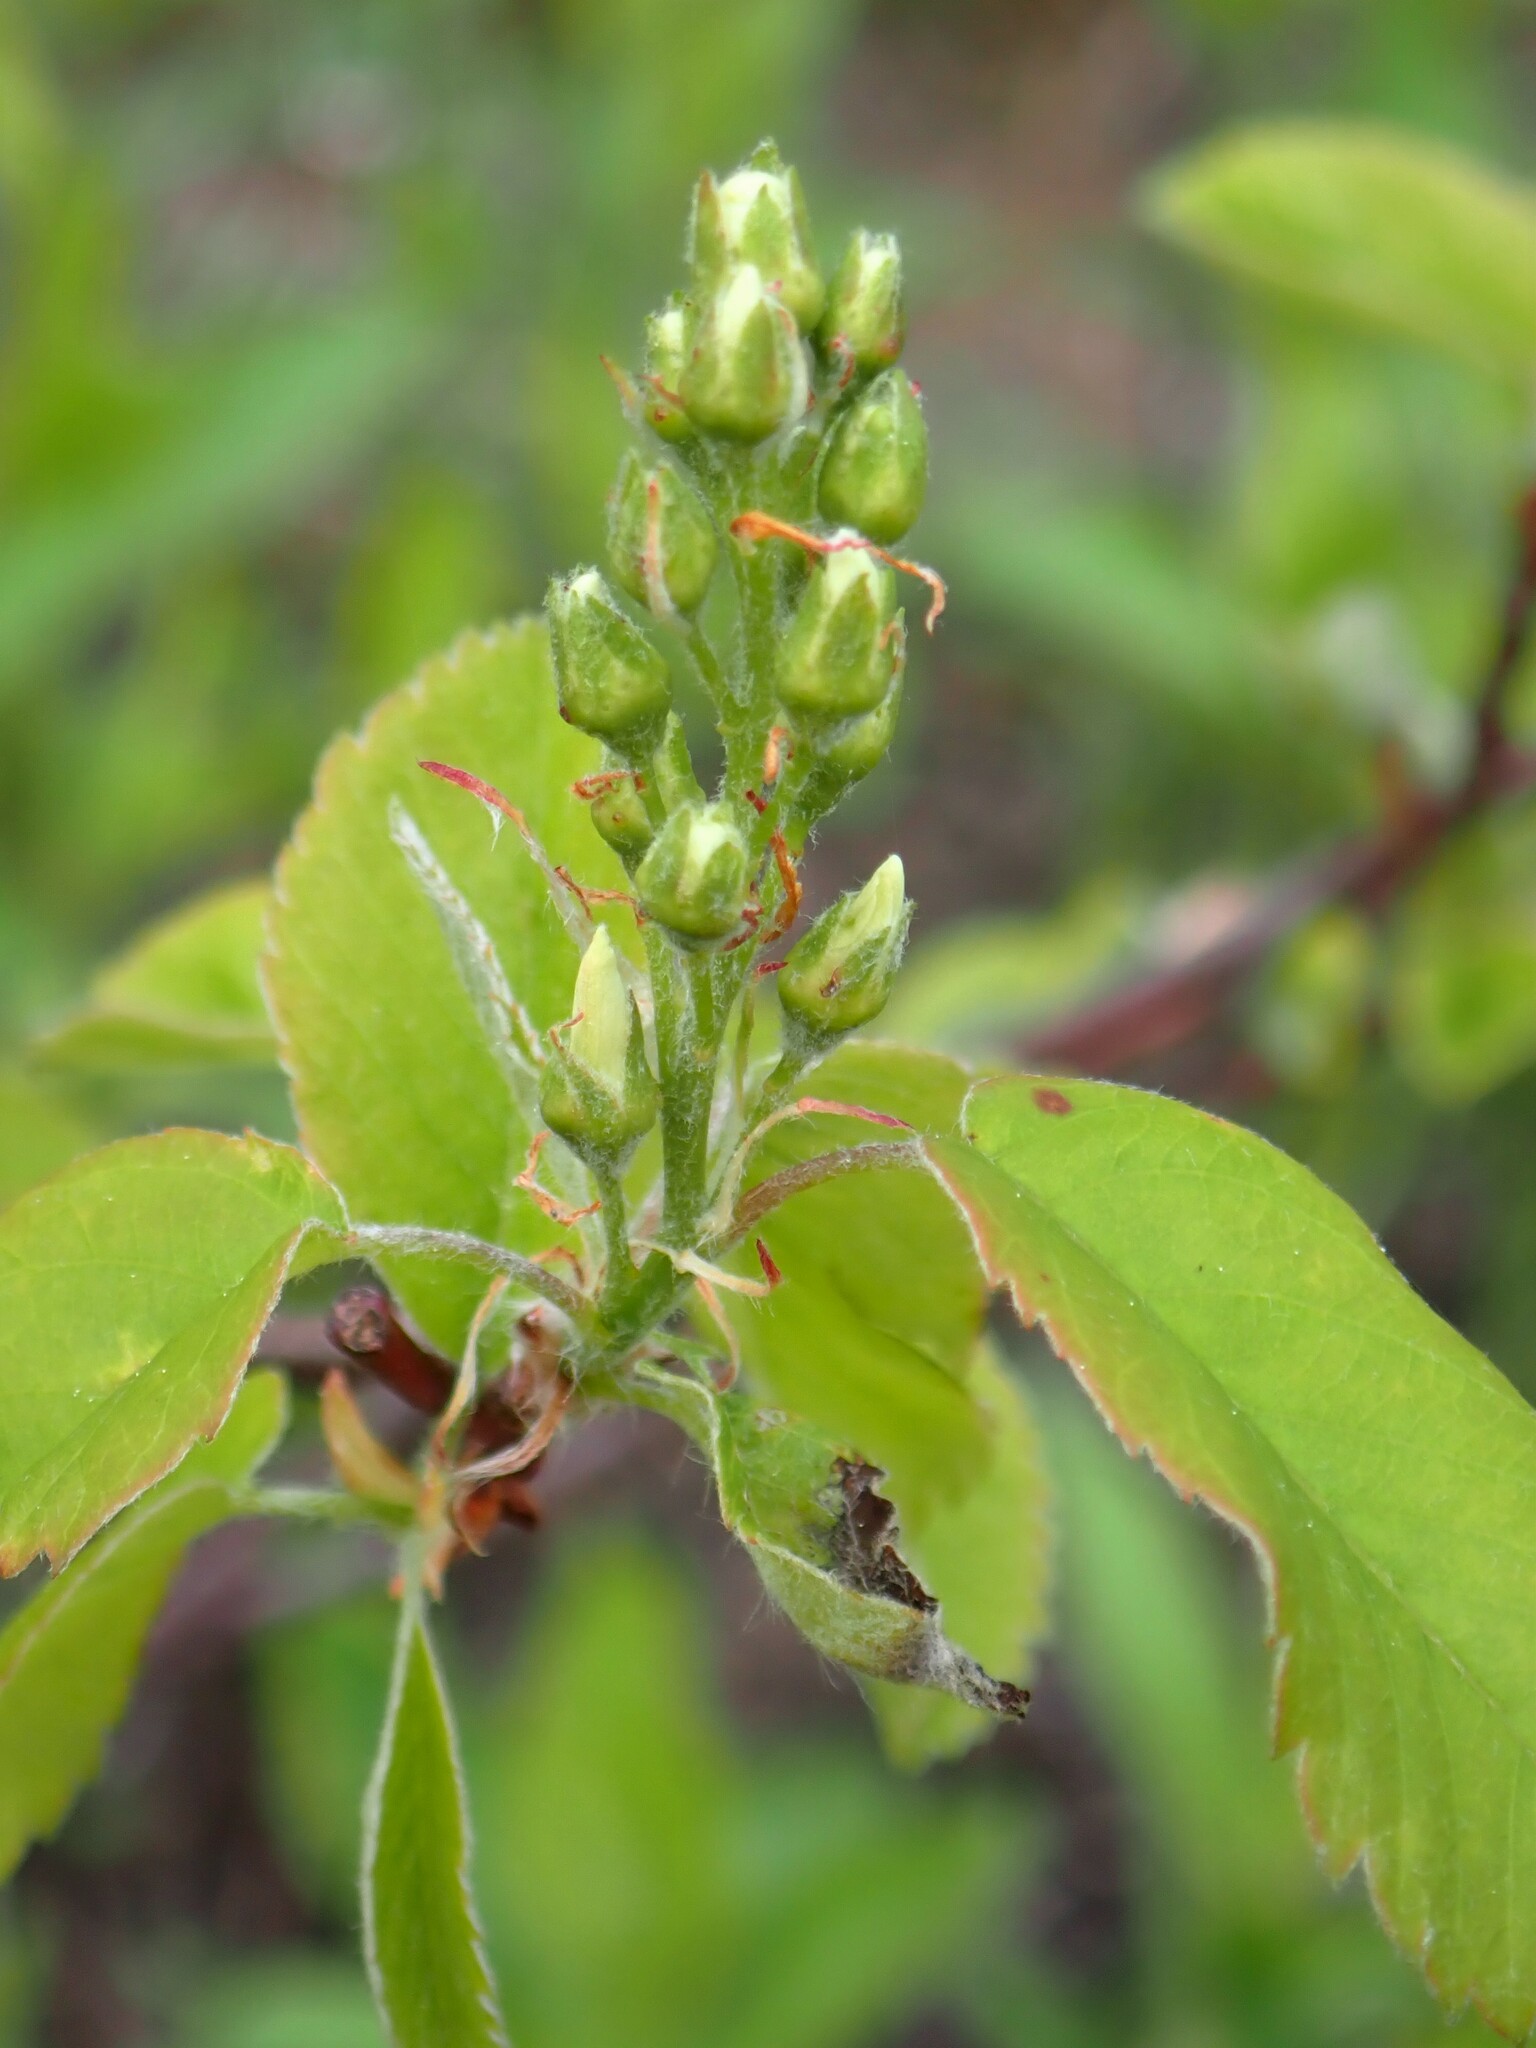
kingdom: Plantae
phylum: Tracheophyta
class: Magnoliopsida
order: Rosales
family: Rosaceae
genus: Amelanchier
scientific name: Amelanchier alnifolia
